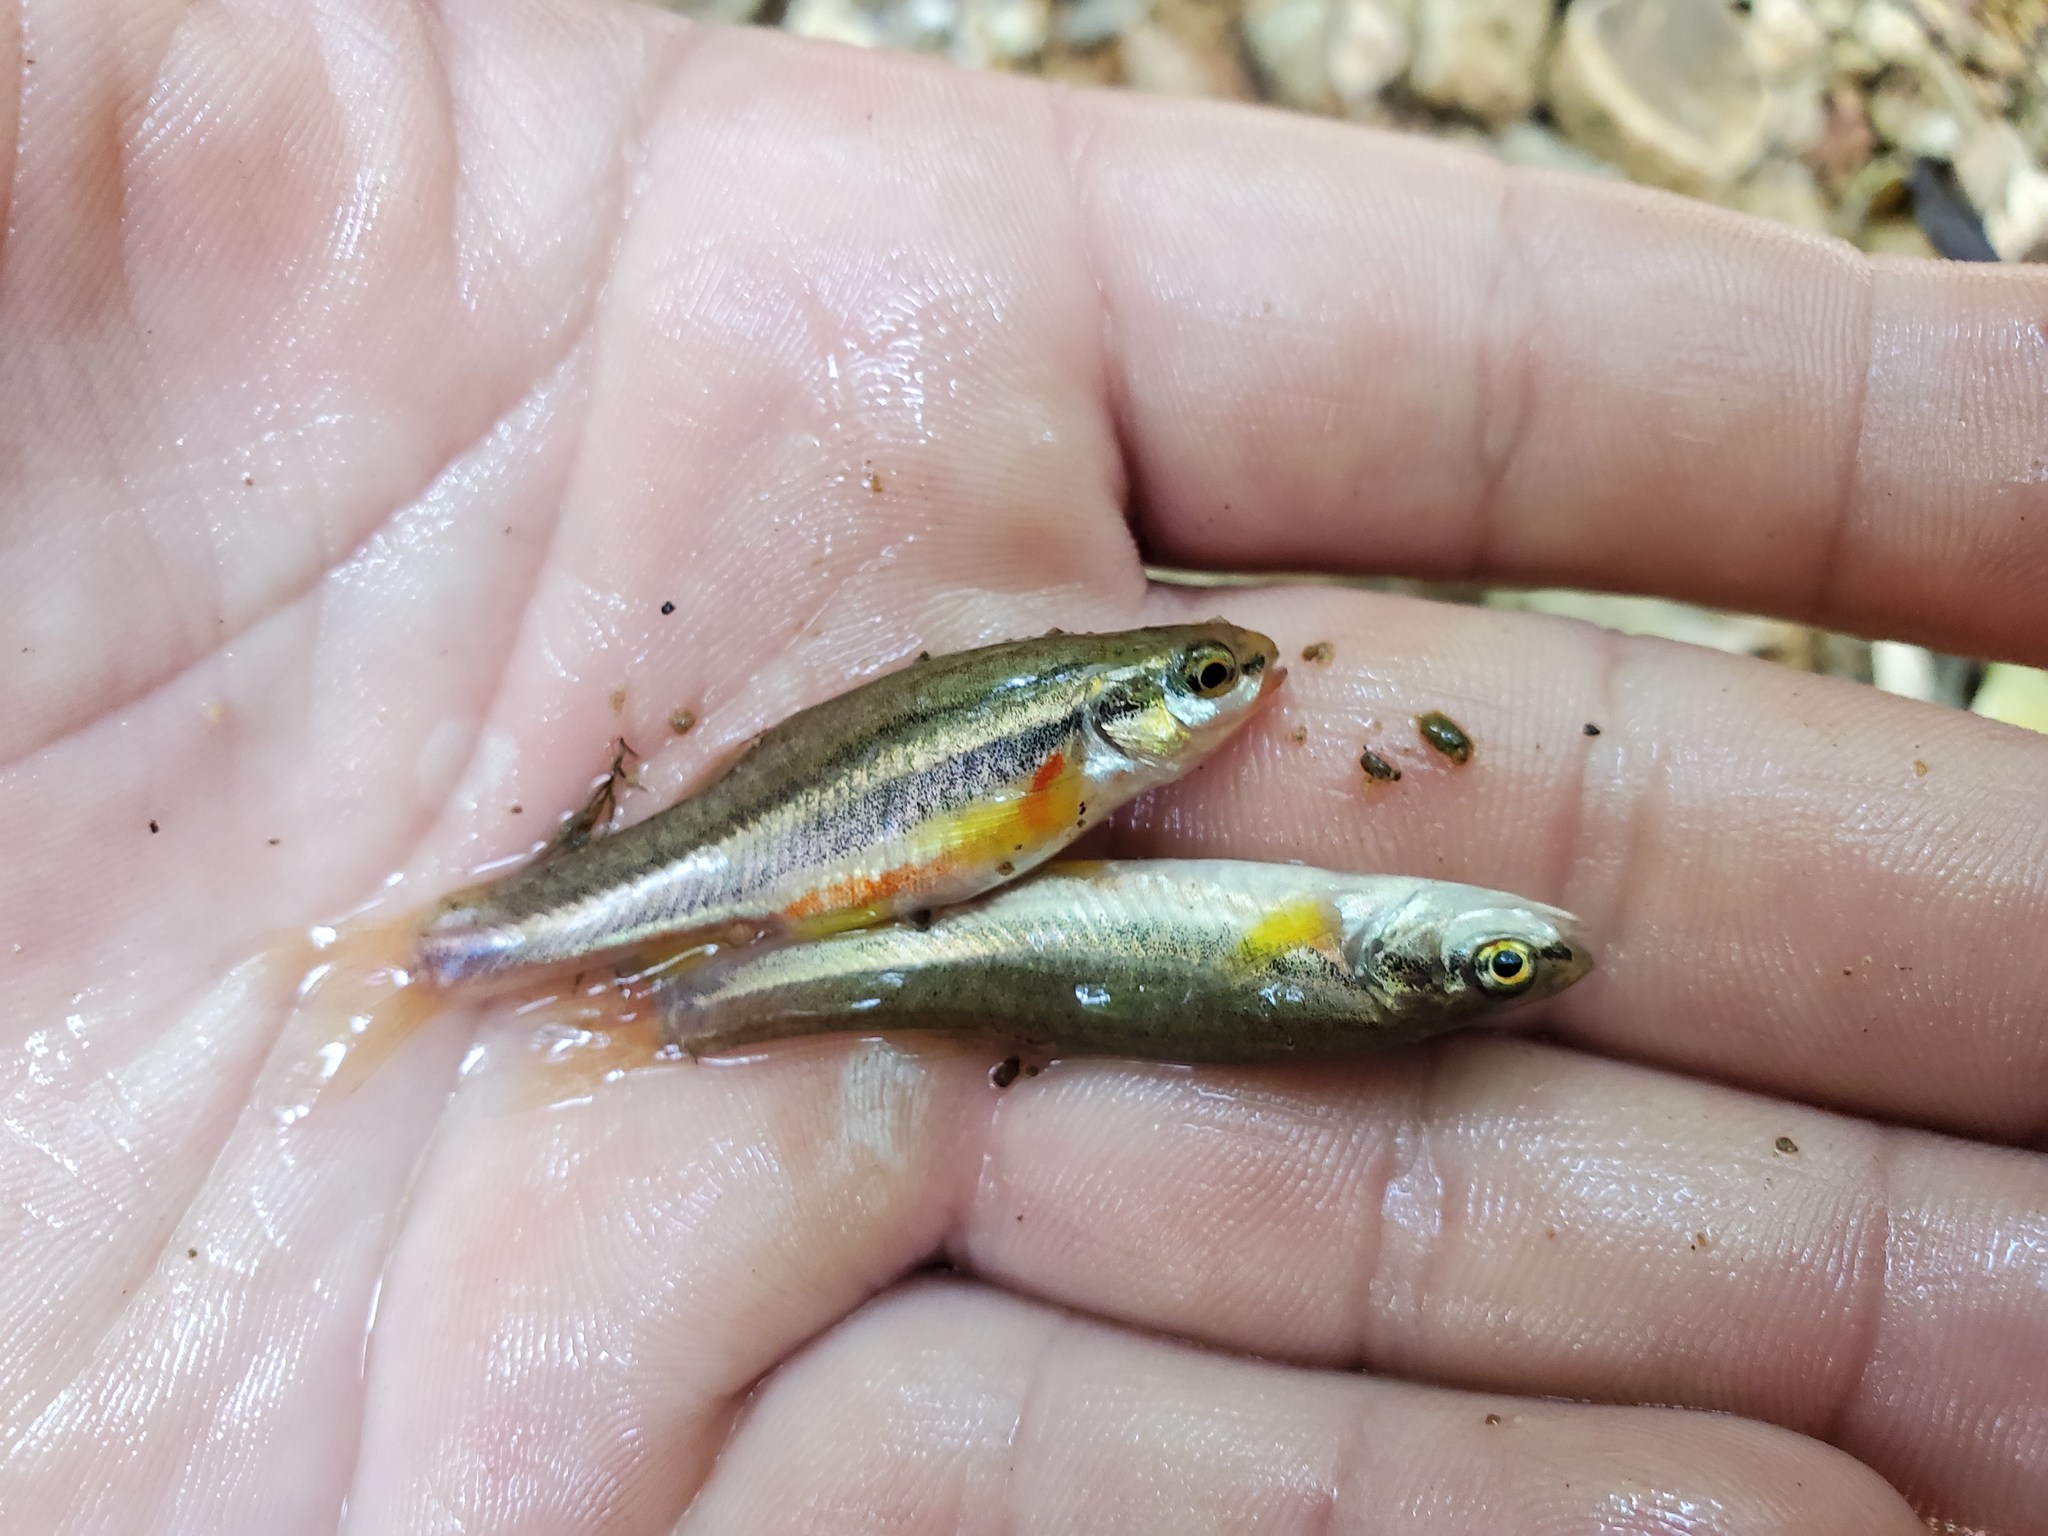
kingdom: Animalia
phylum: Chordata
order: Cypriniformes
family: Cyprinidae
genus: Chrosomus
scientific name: Chrosomus erythrogaster
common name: Southern redbelly dace
